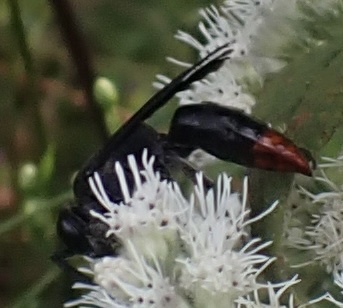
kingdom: Animalia
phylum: Arthropoda
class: Insecta
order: Hymenoptera
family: Crabronidae
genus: Larra
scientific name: Larra analis
